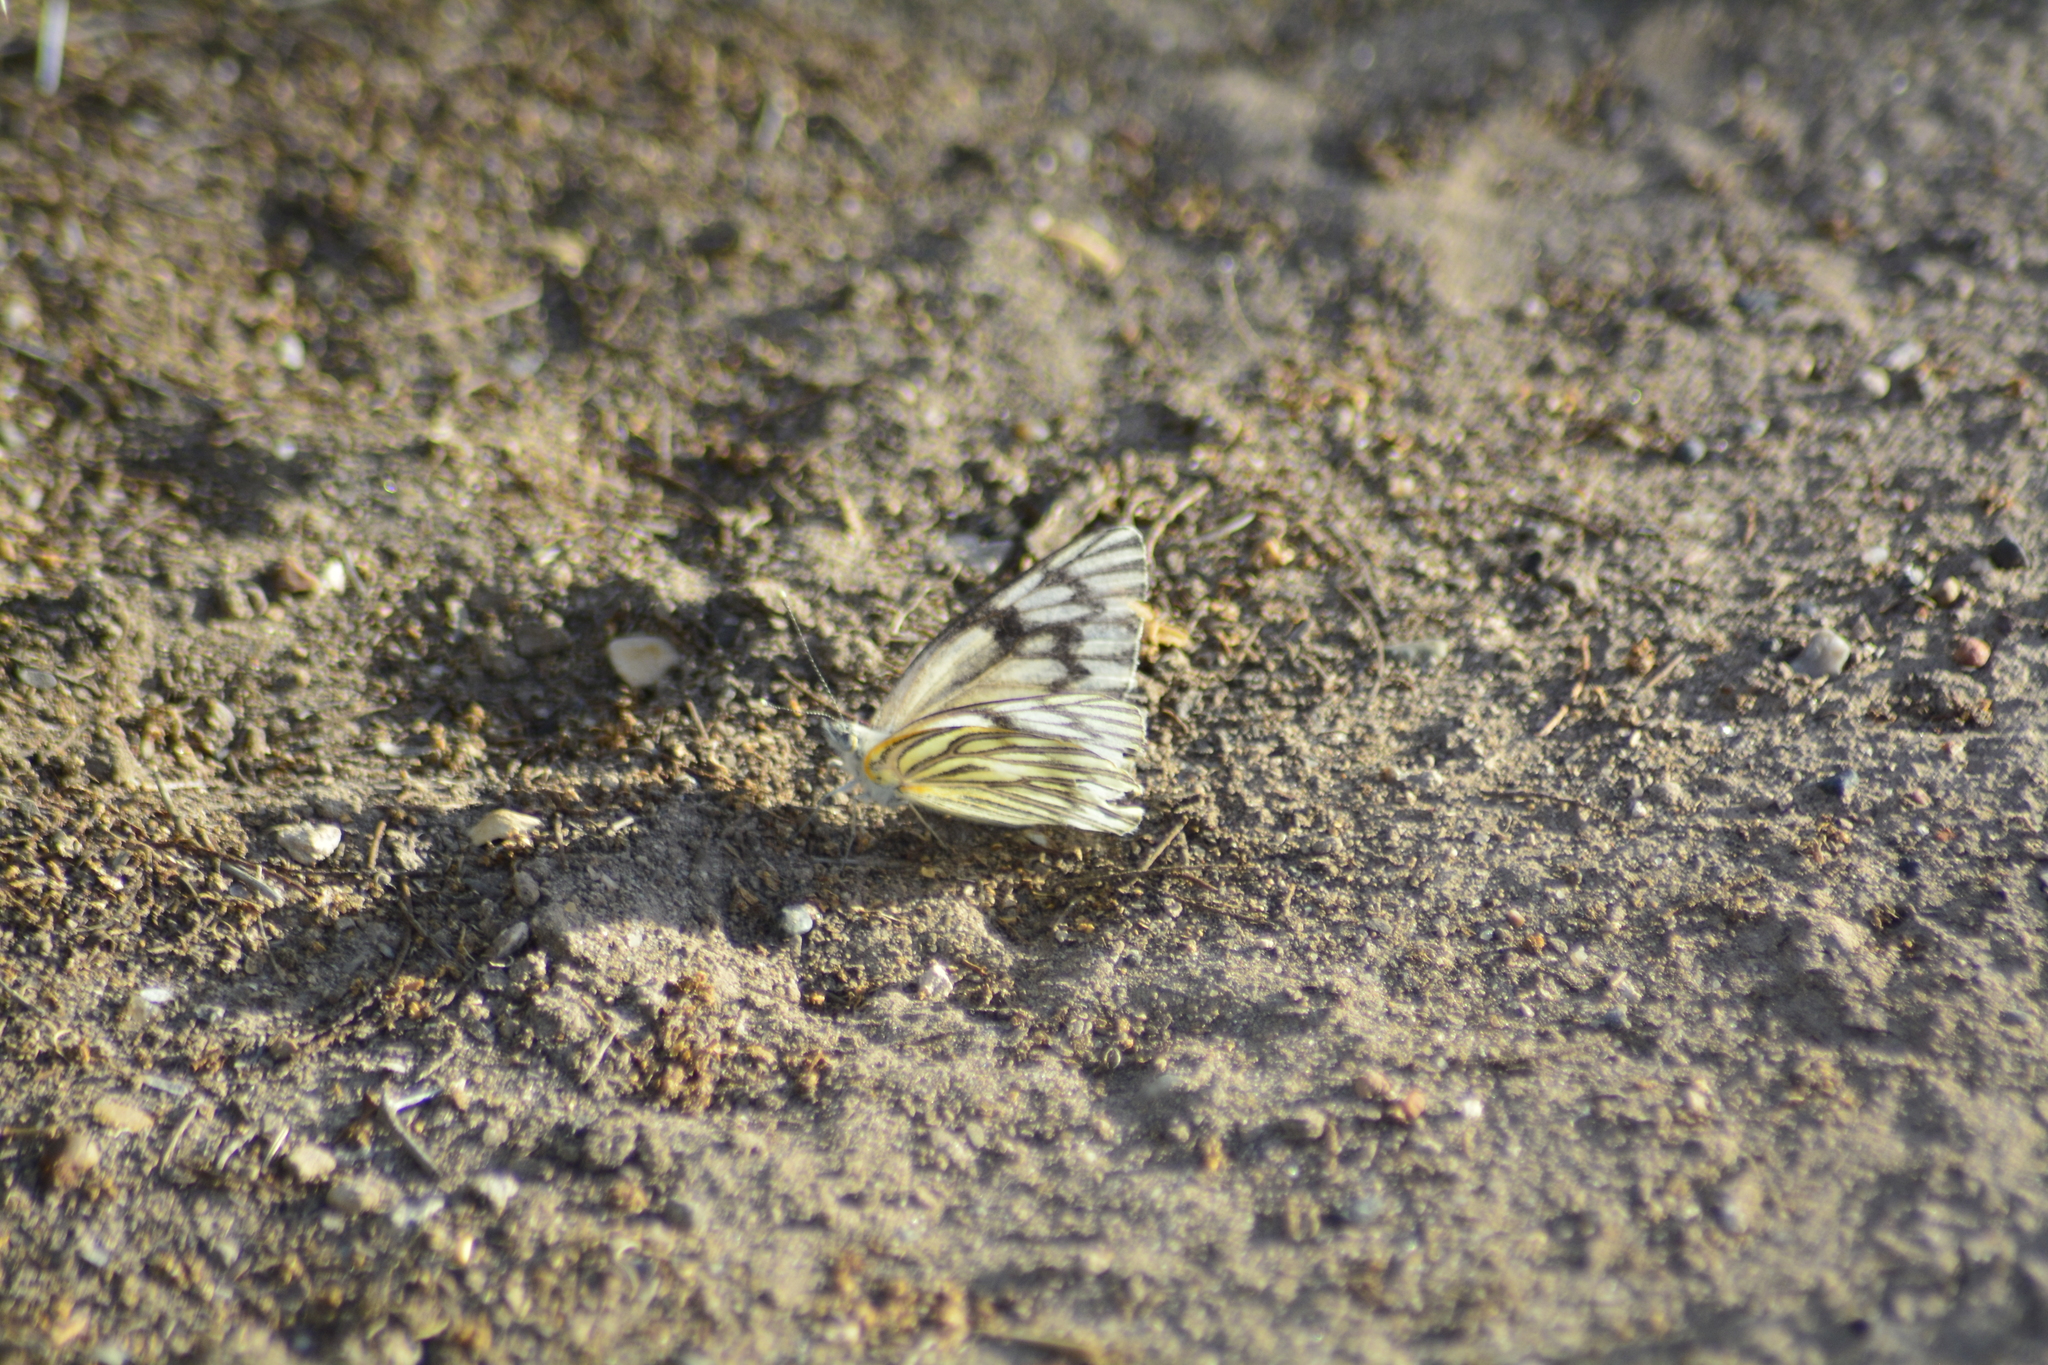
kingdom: Animalia
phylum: Arthropoda
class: Insecta
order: Lepidoptera
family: Pieridae
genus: Tatochila
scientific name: Tatochila mercedis
